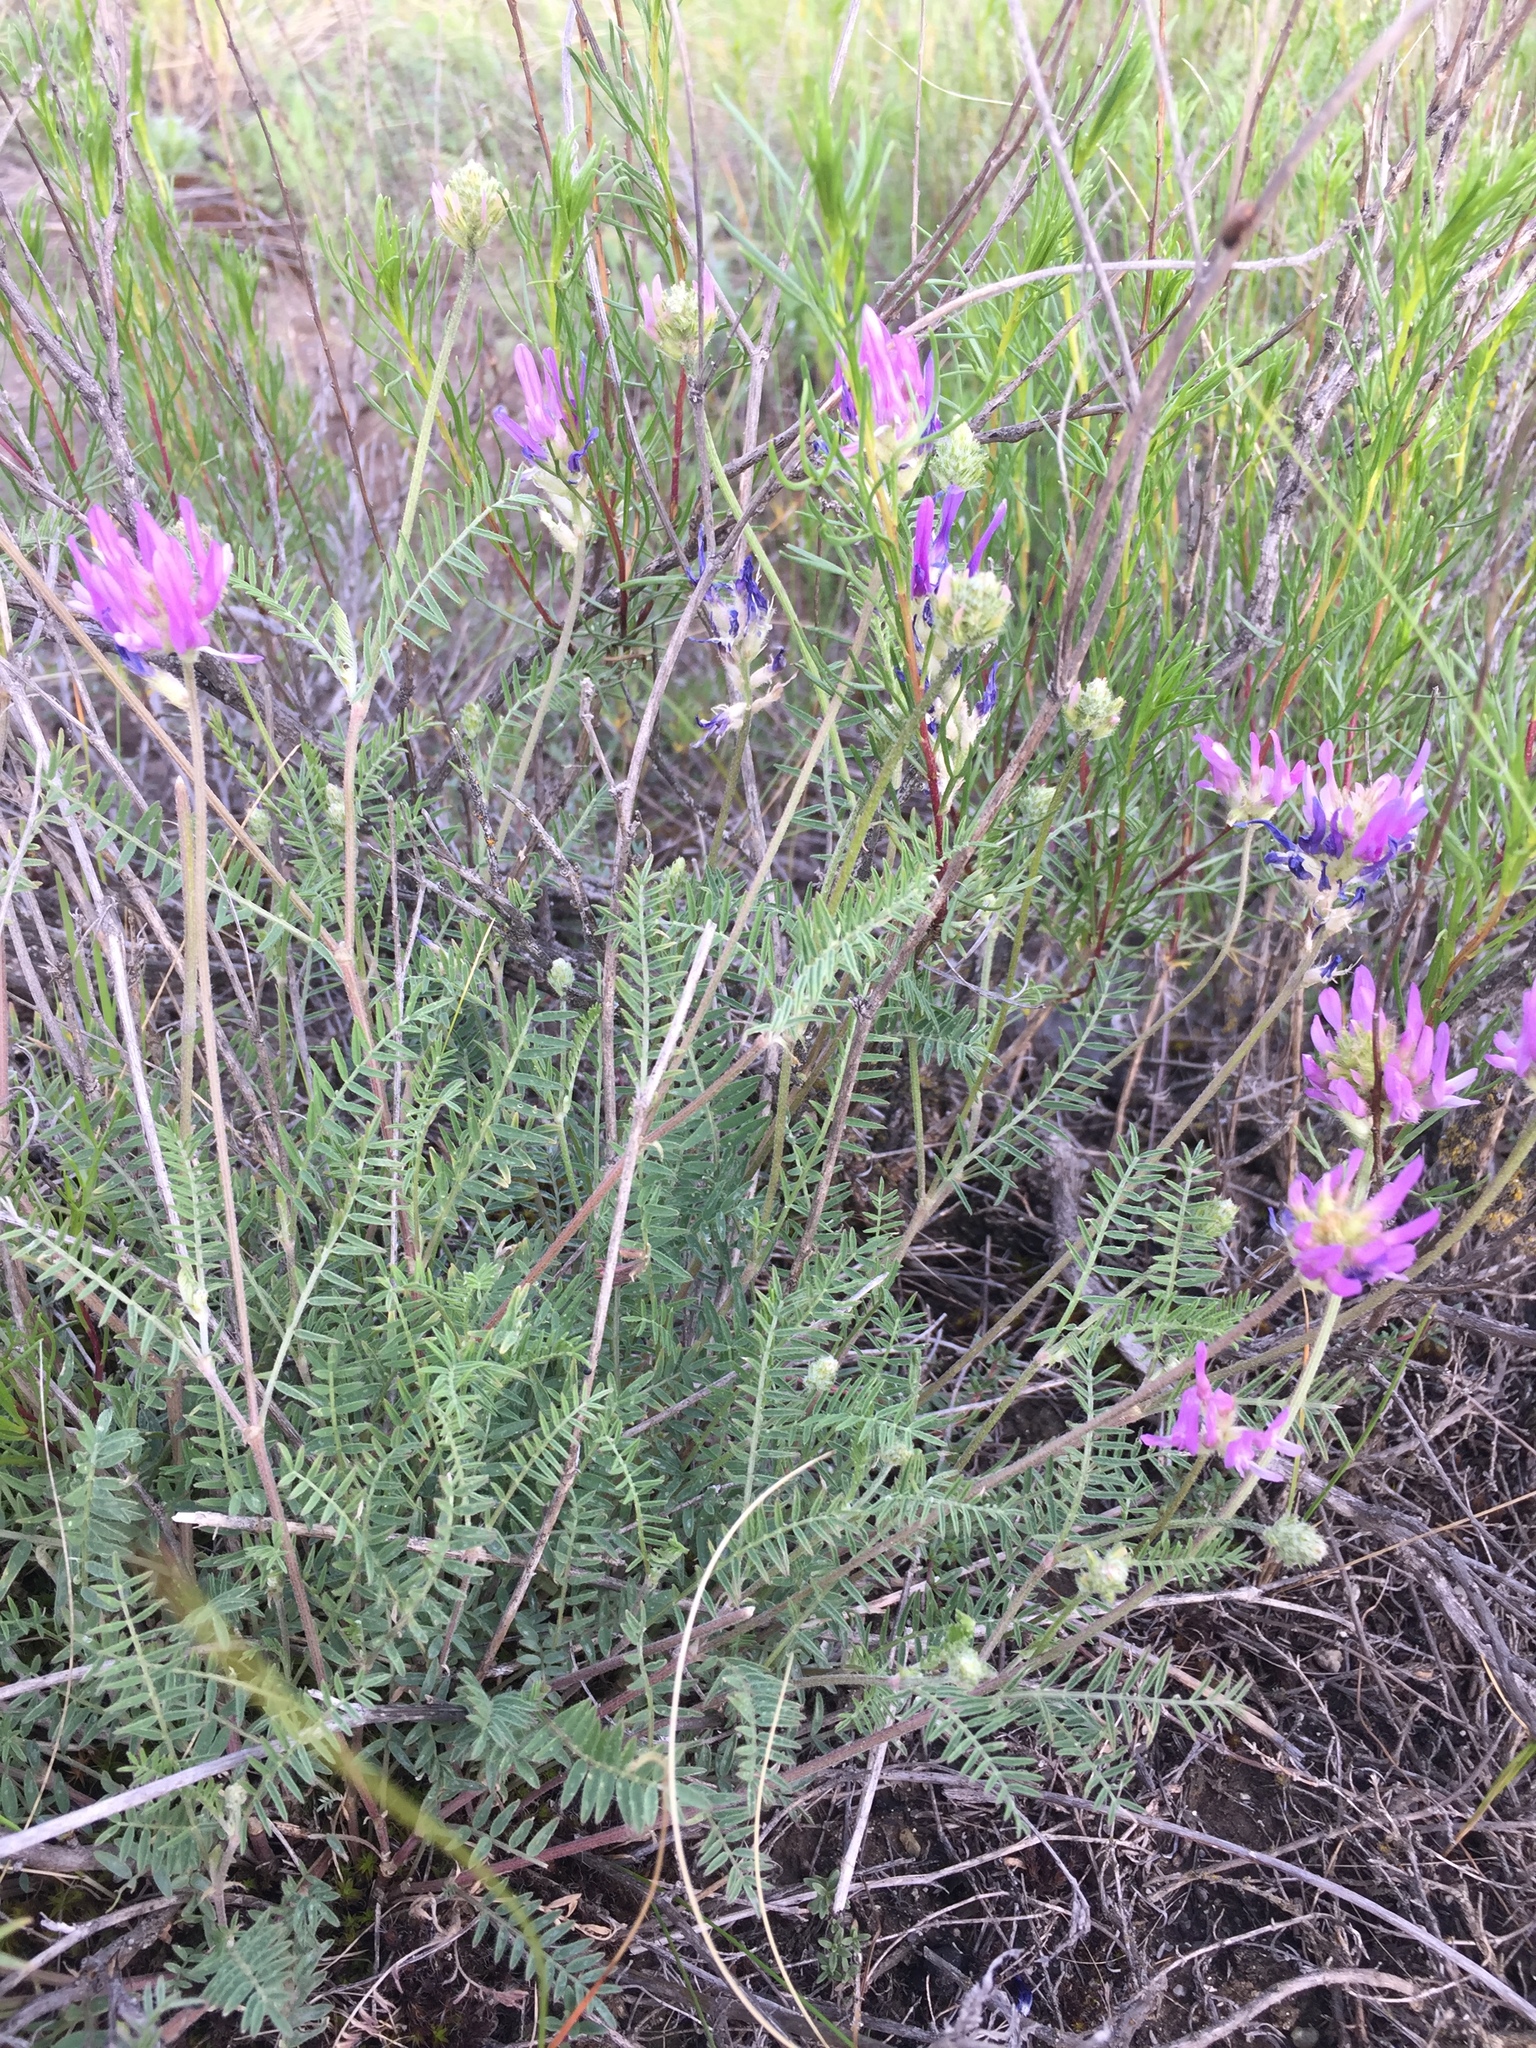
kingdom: Plantae
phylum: Tracheophyta
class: Magnoliopsida
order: Fabales
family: Fabaceae
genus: Astragalus
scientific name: Astragalus cornutus
